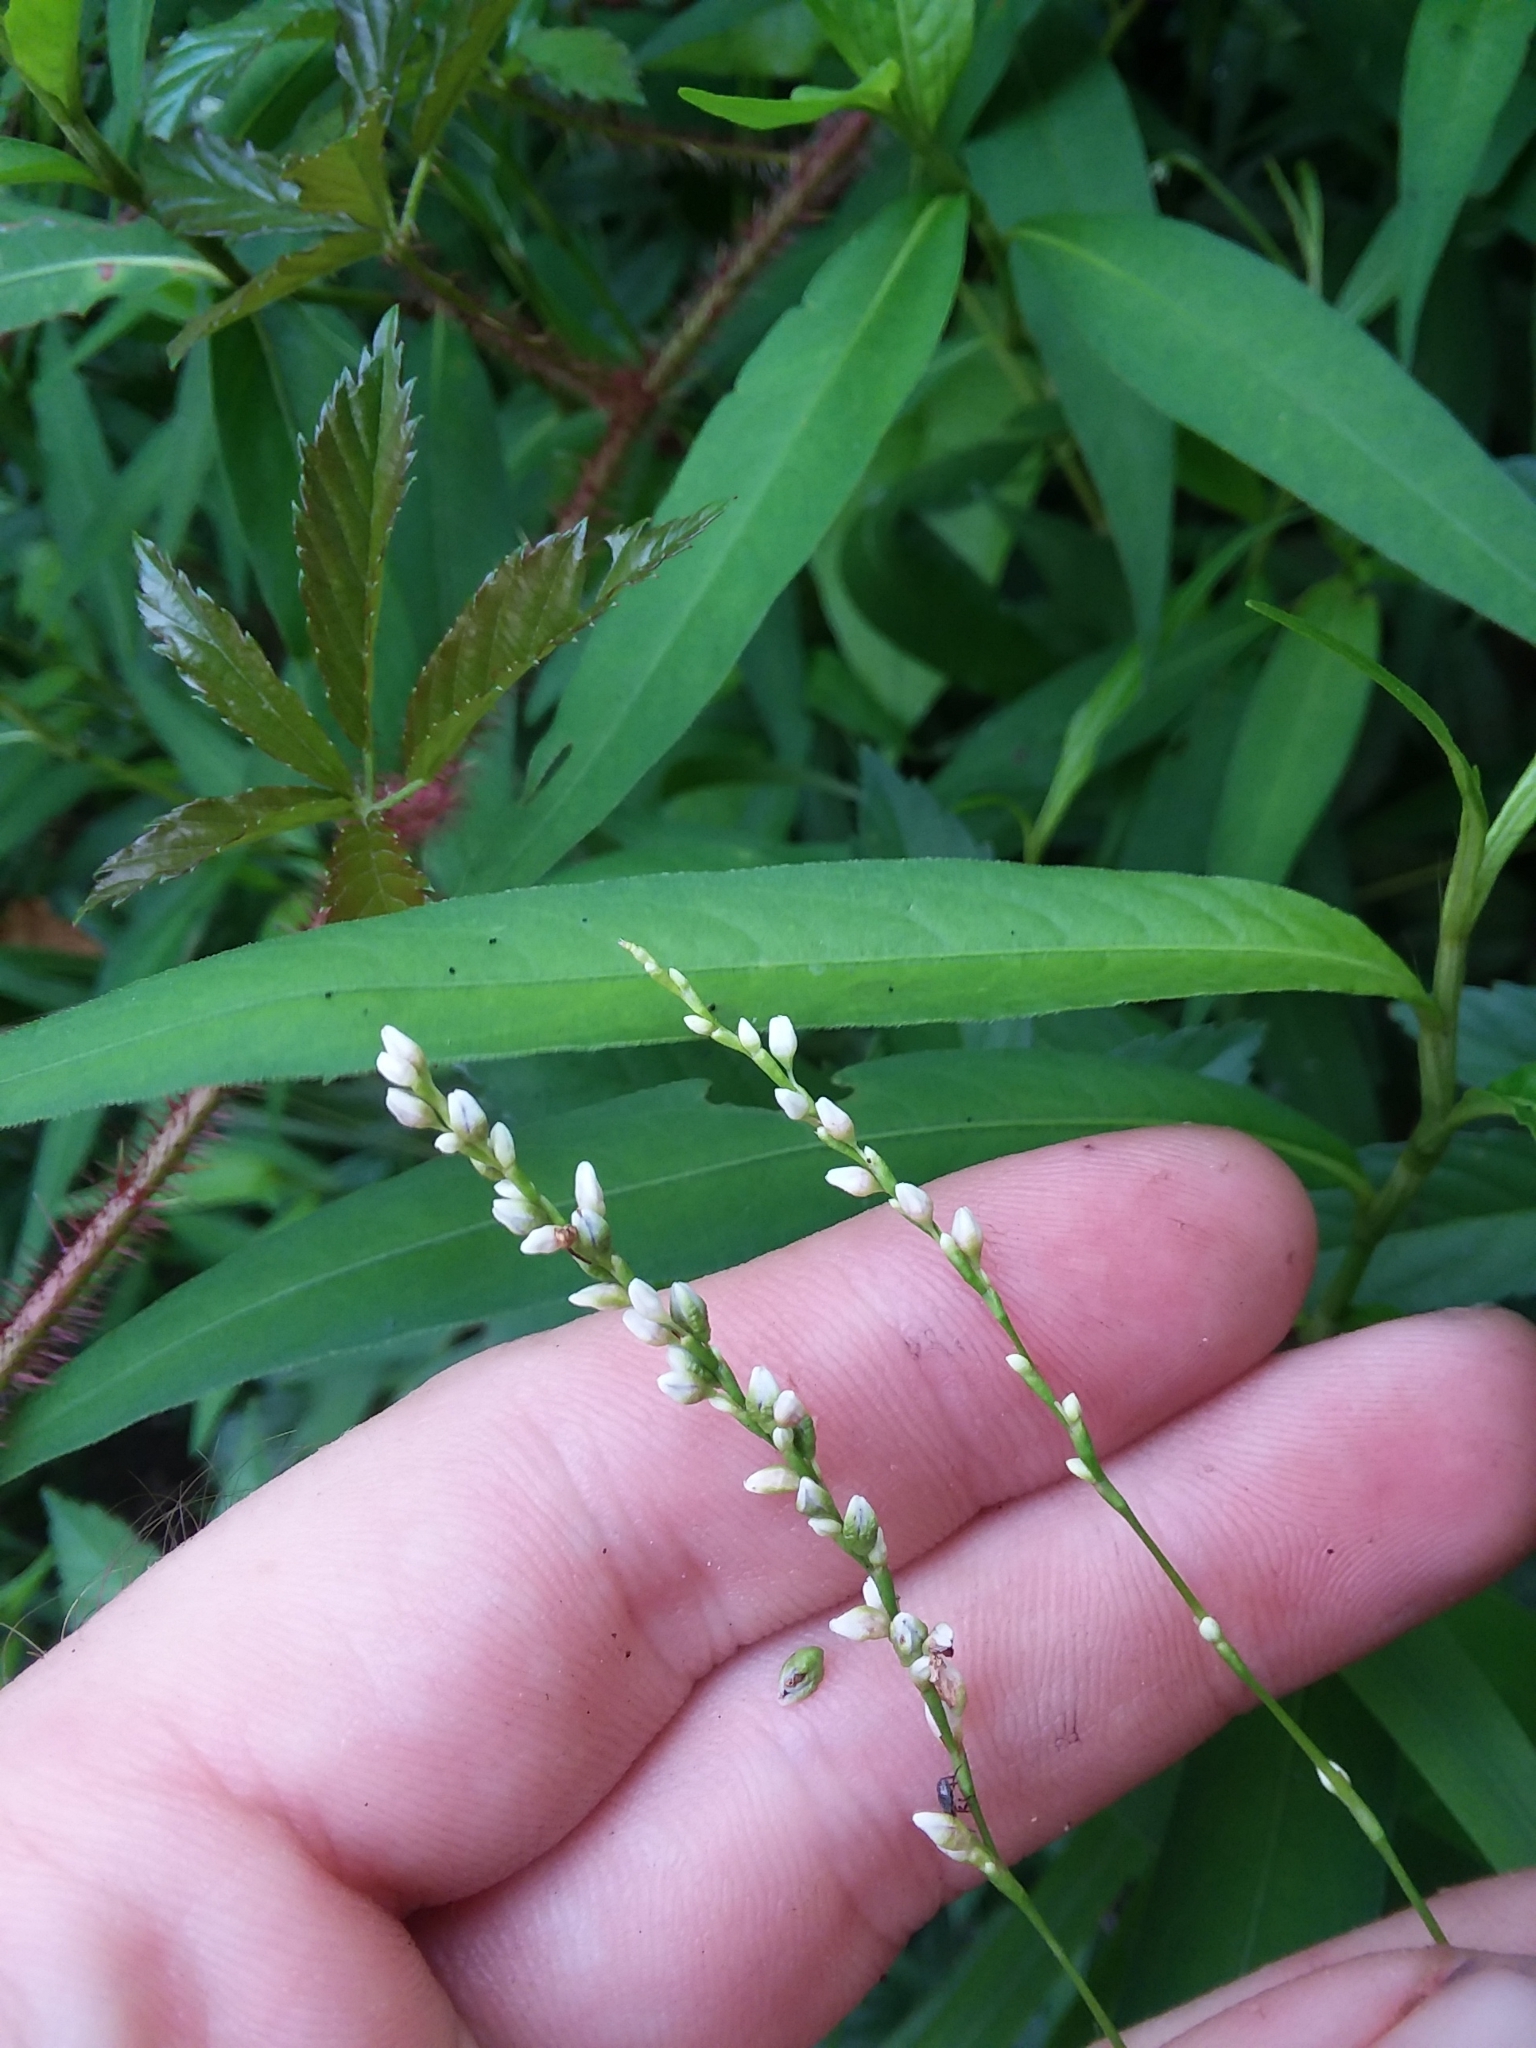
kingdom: Plantae
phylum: Tracheophyta
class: Magnoliopsida
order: Caryophyllales
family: Polygonaceae
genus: Persicaria
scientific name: Persicaria hydropiperoides
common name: Swamp smartweed
